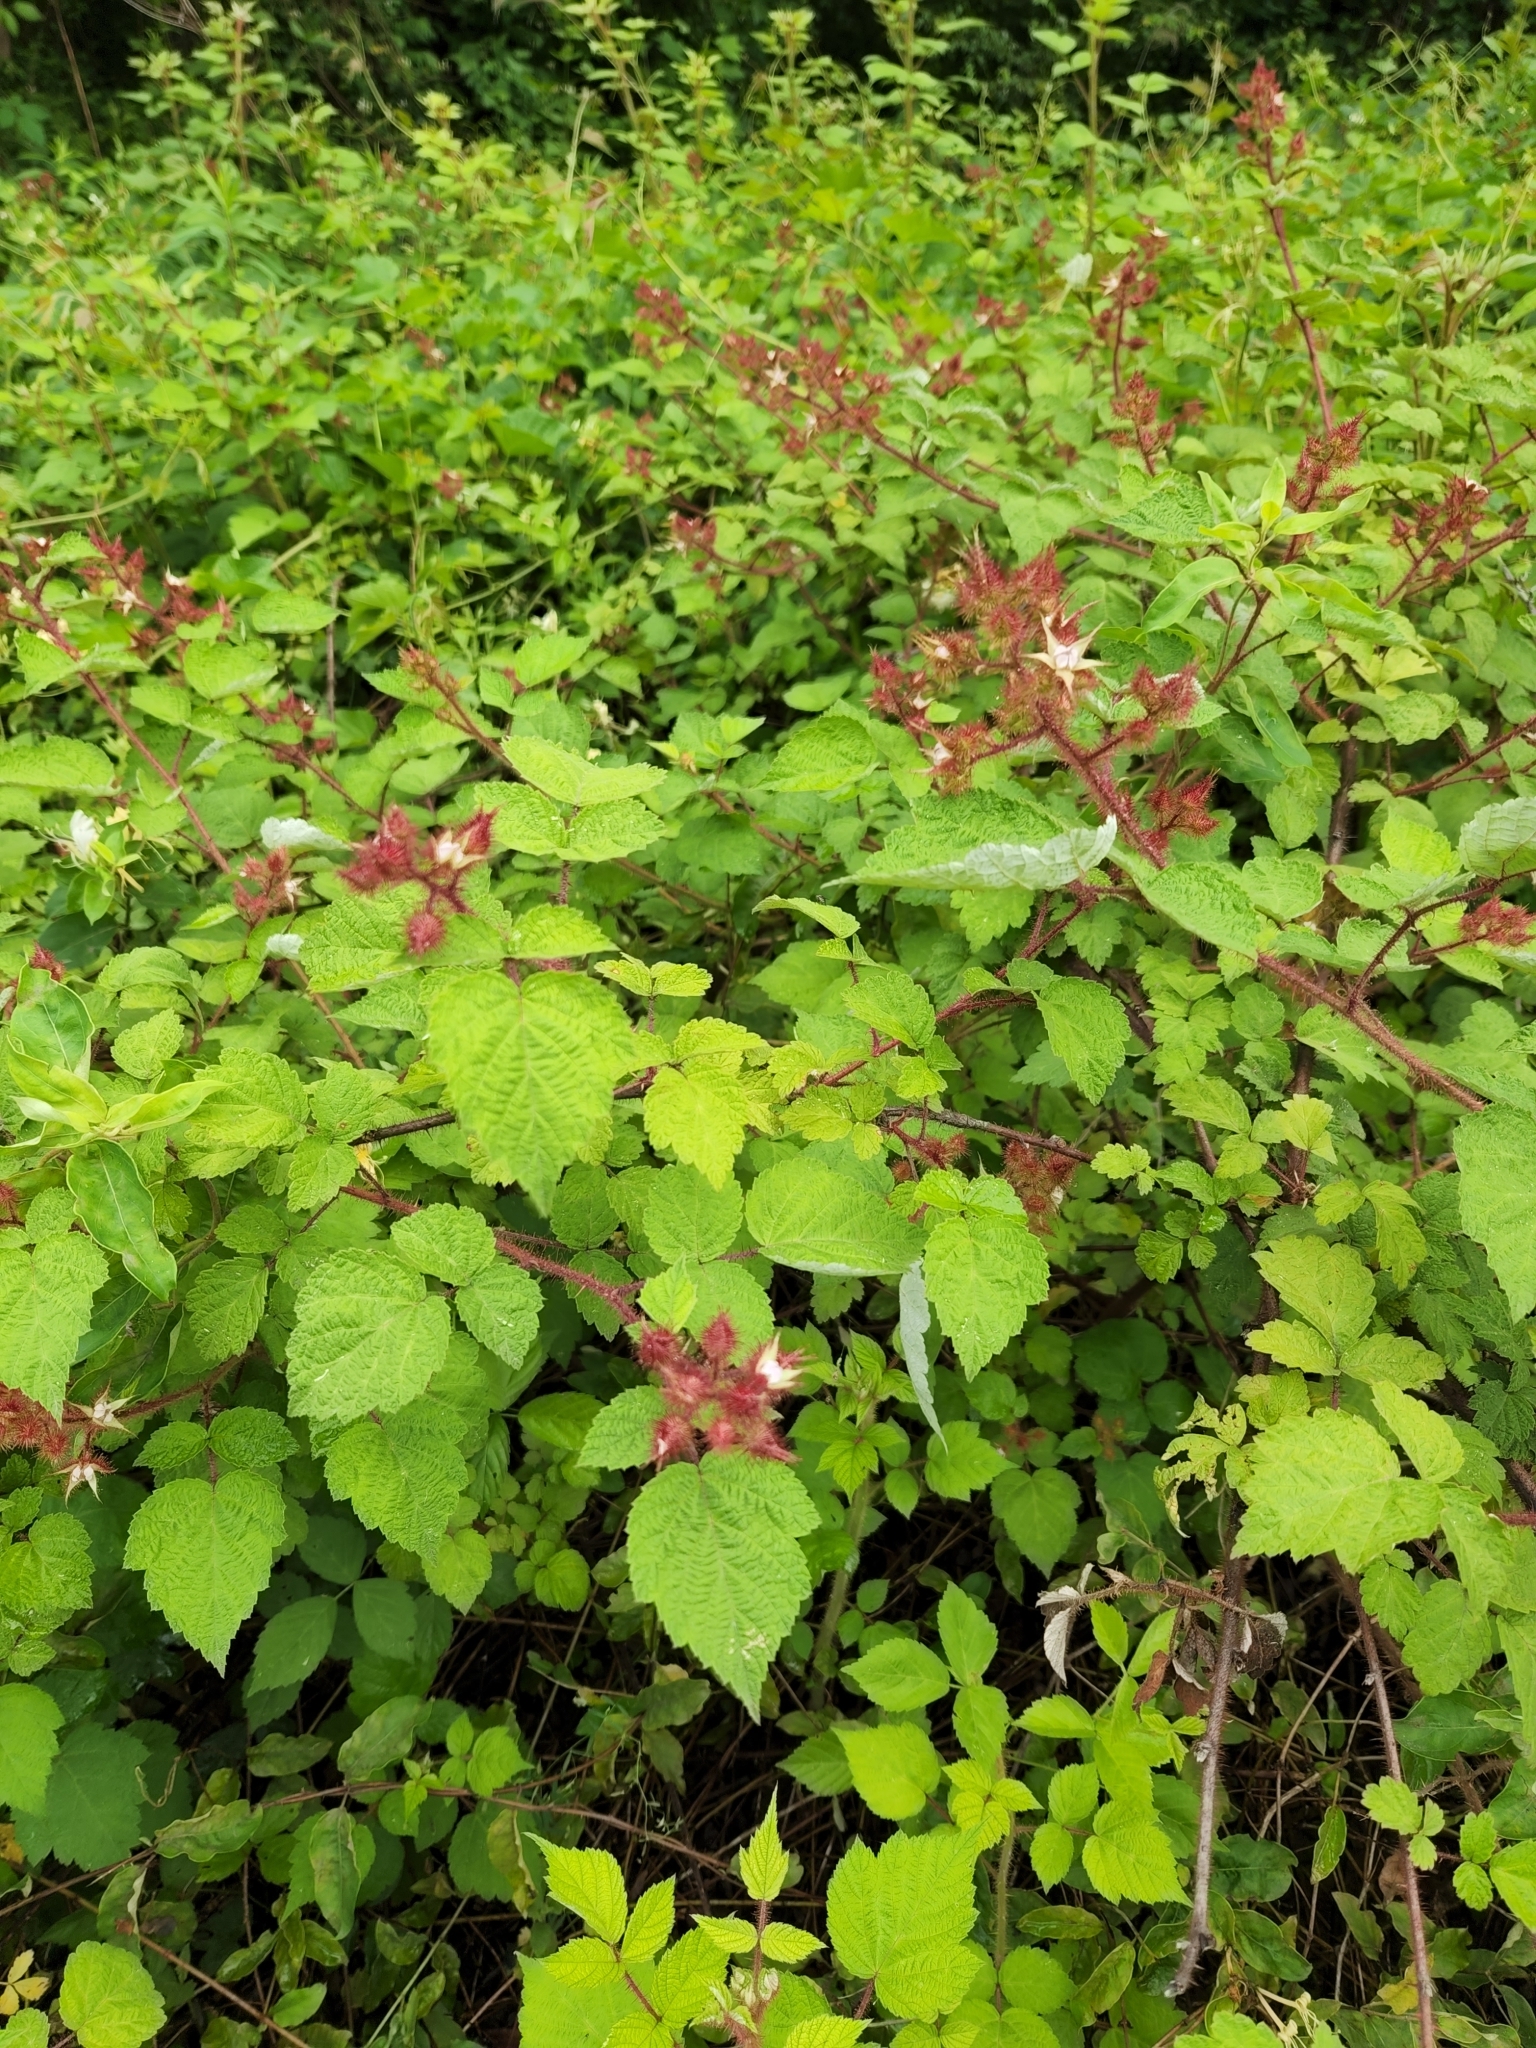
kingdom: Plantae
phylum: Tracheophyta
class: Magnoliopsida
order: Rosales
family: Rosaceae
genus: Rubus
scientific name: Rubus phoenicolasius
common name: Japanese wineberry
